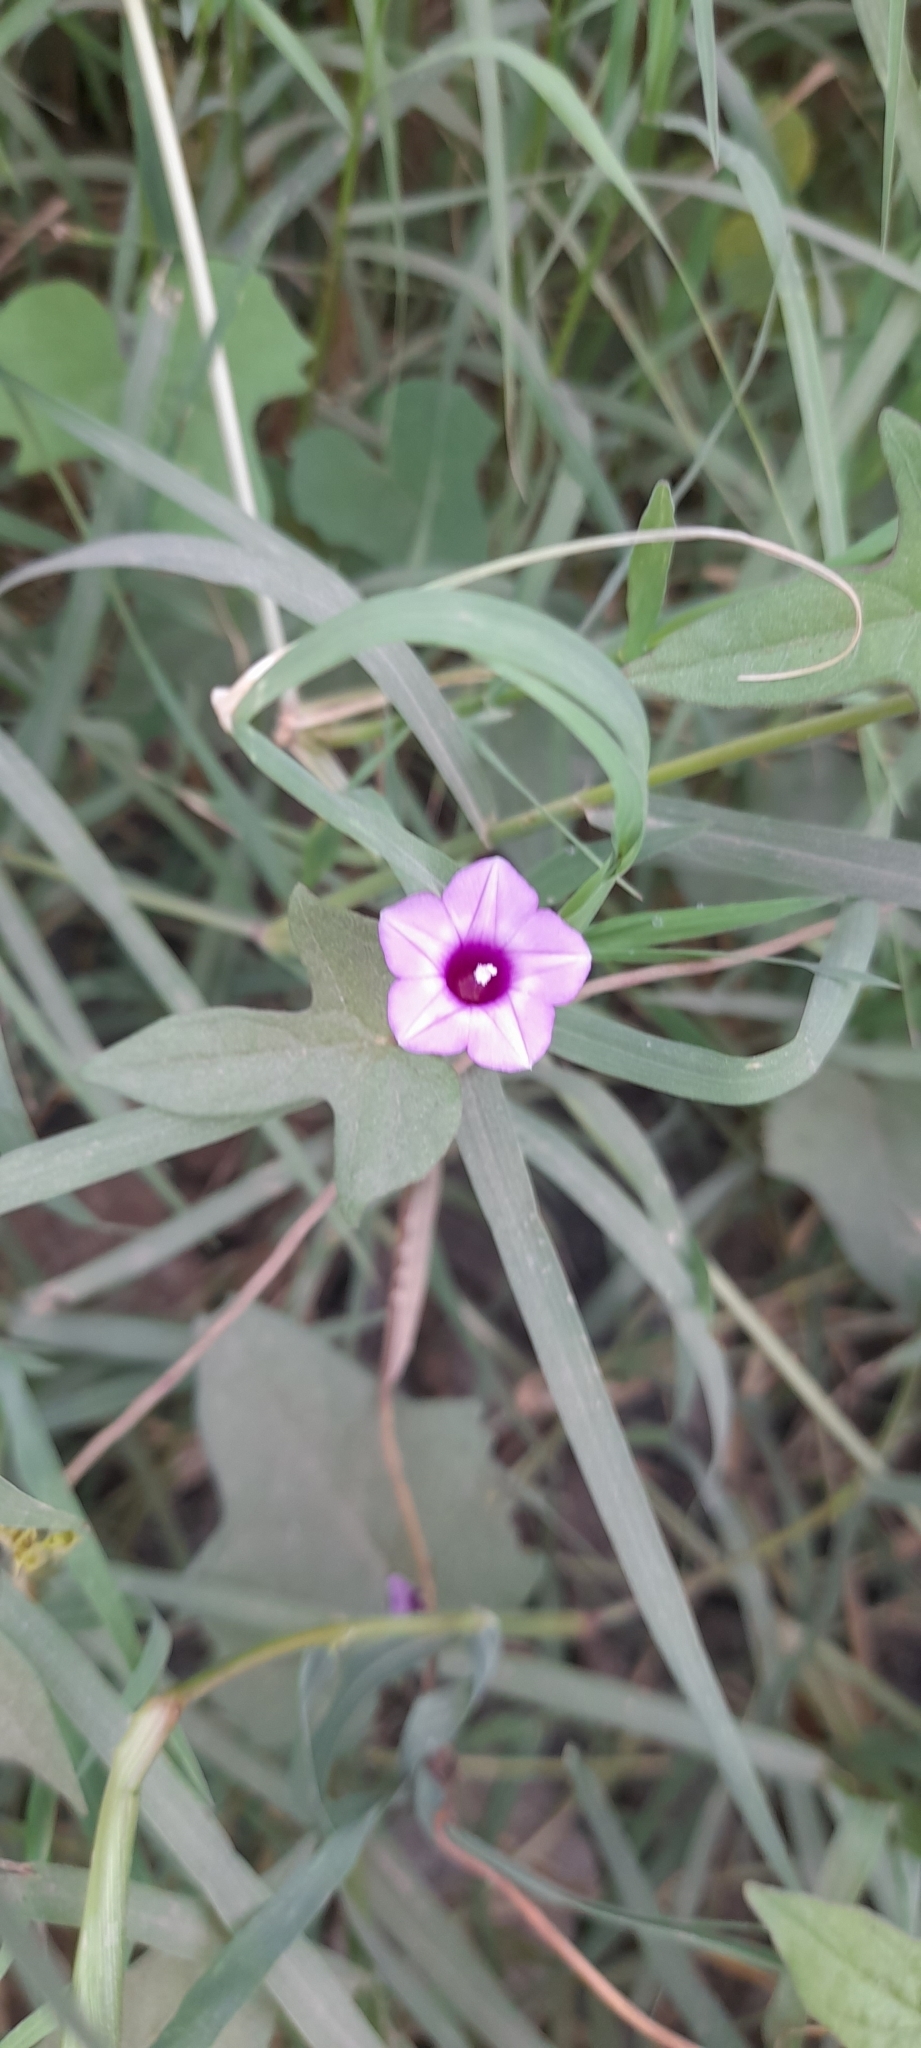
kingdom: Plantae
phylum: Tracheophyta
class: Magnoliopsida
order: Solanales
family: Convolvulaceae
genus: Ipomoea
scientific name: Ipomoea triloba
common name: Little-bell
